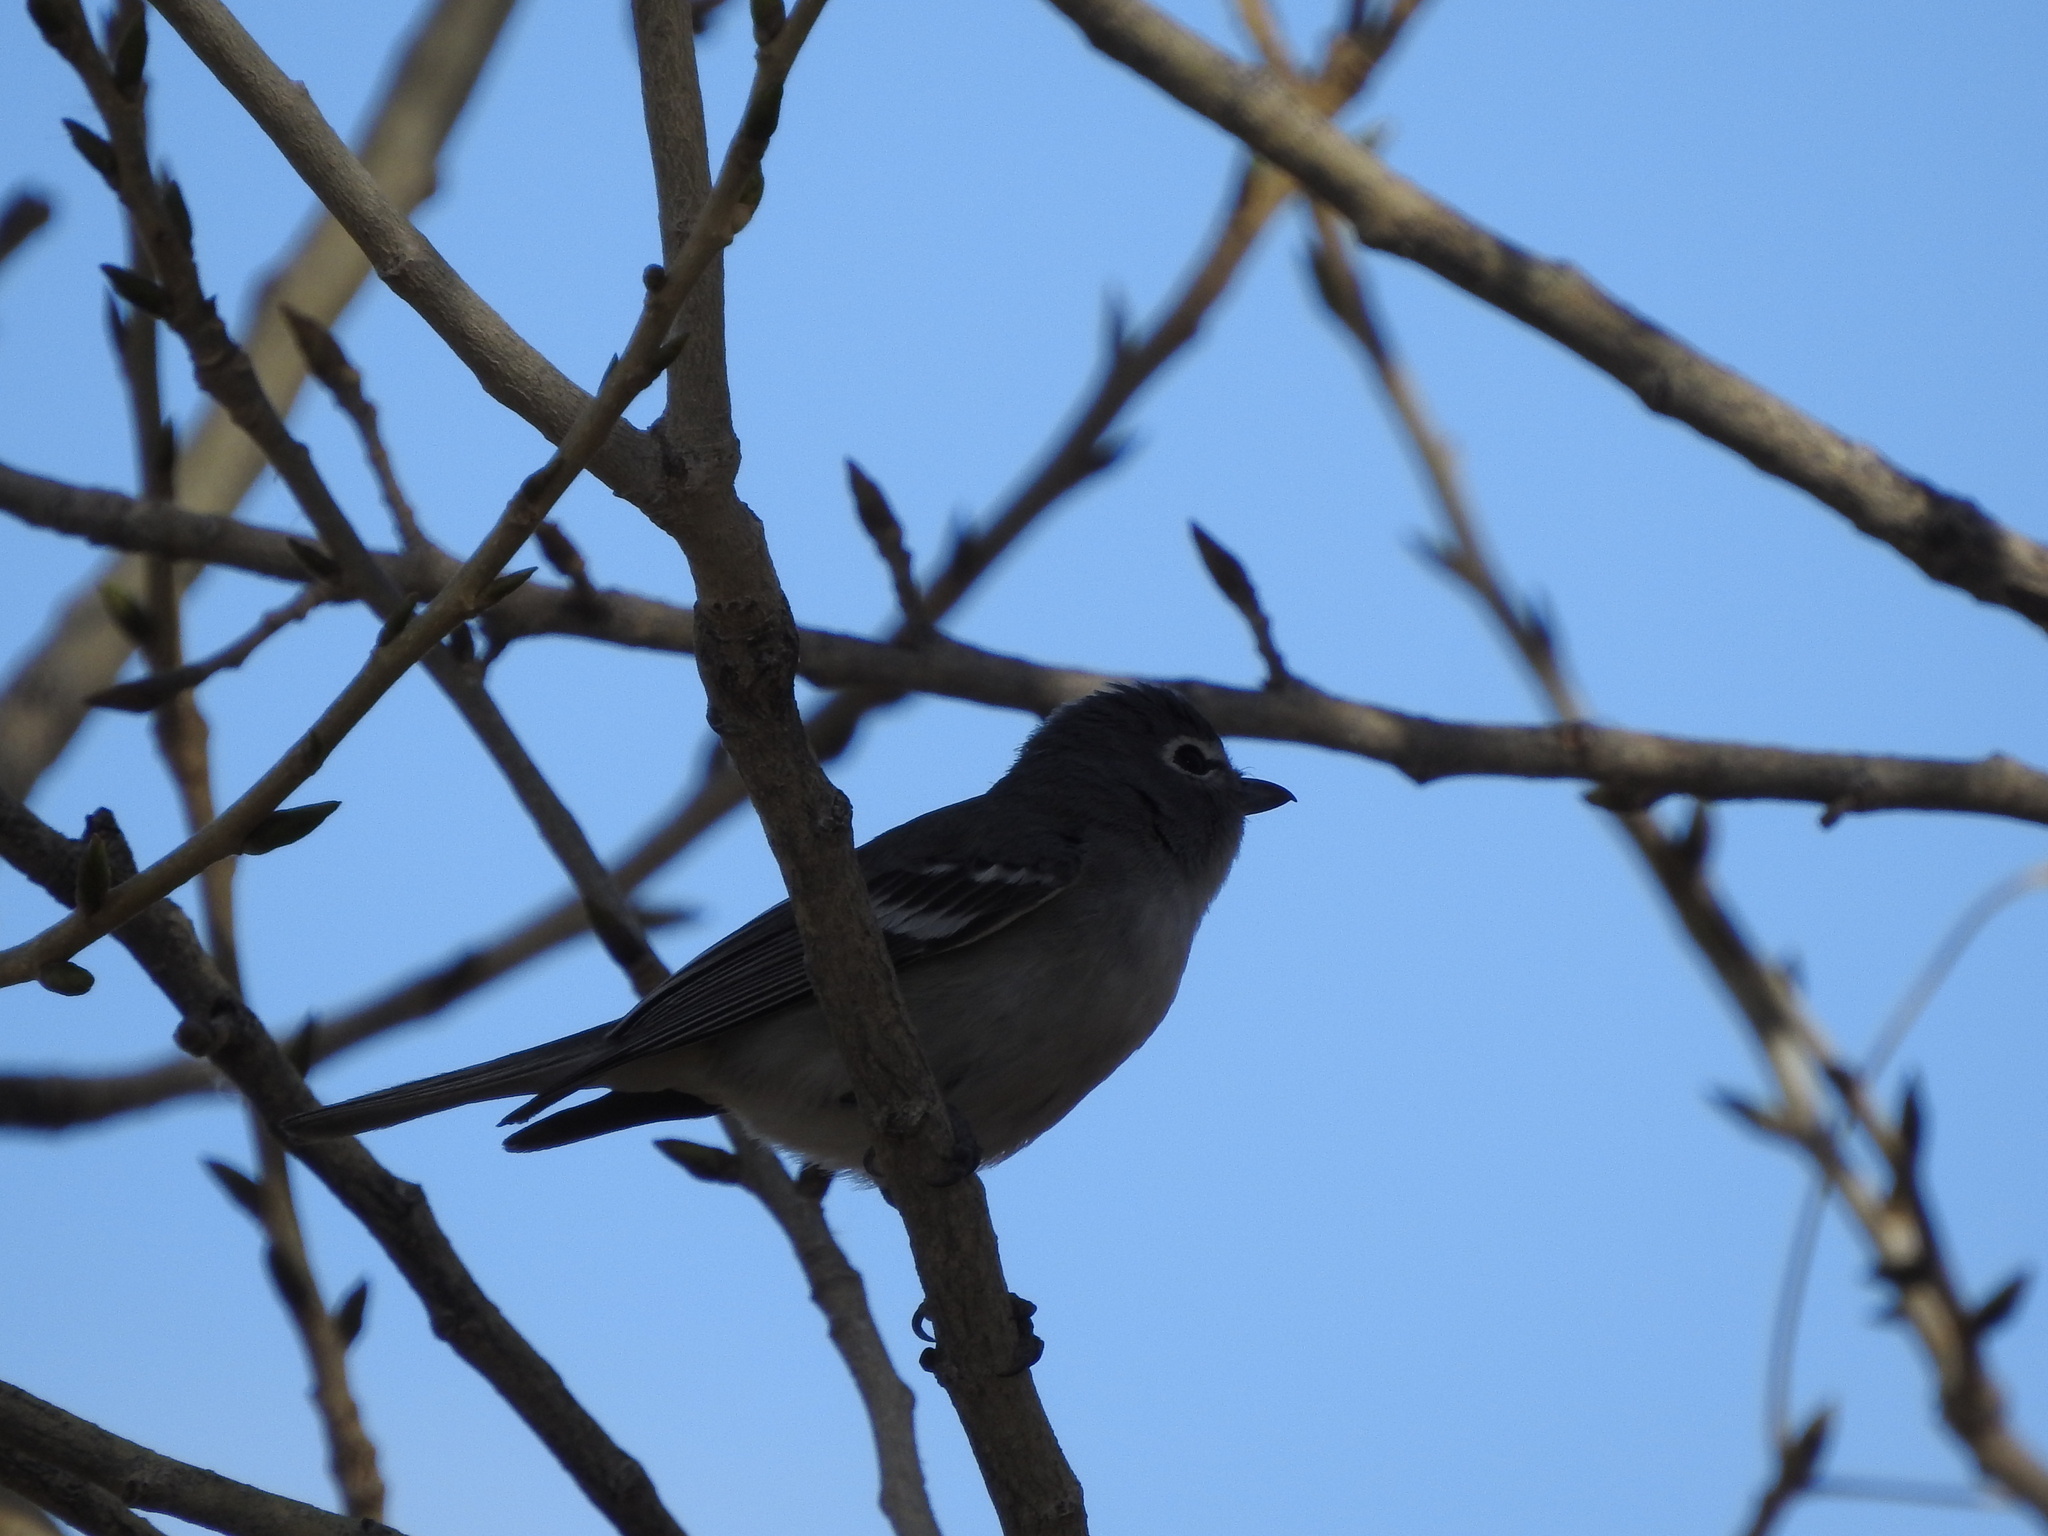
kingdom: Animalia
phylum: Chordata
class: Aves
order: Passeriformes
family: Vireonidae
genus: Vireo
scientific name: Vireo plumbeus
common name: Plumbeous vireo
